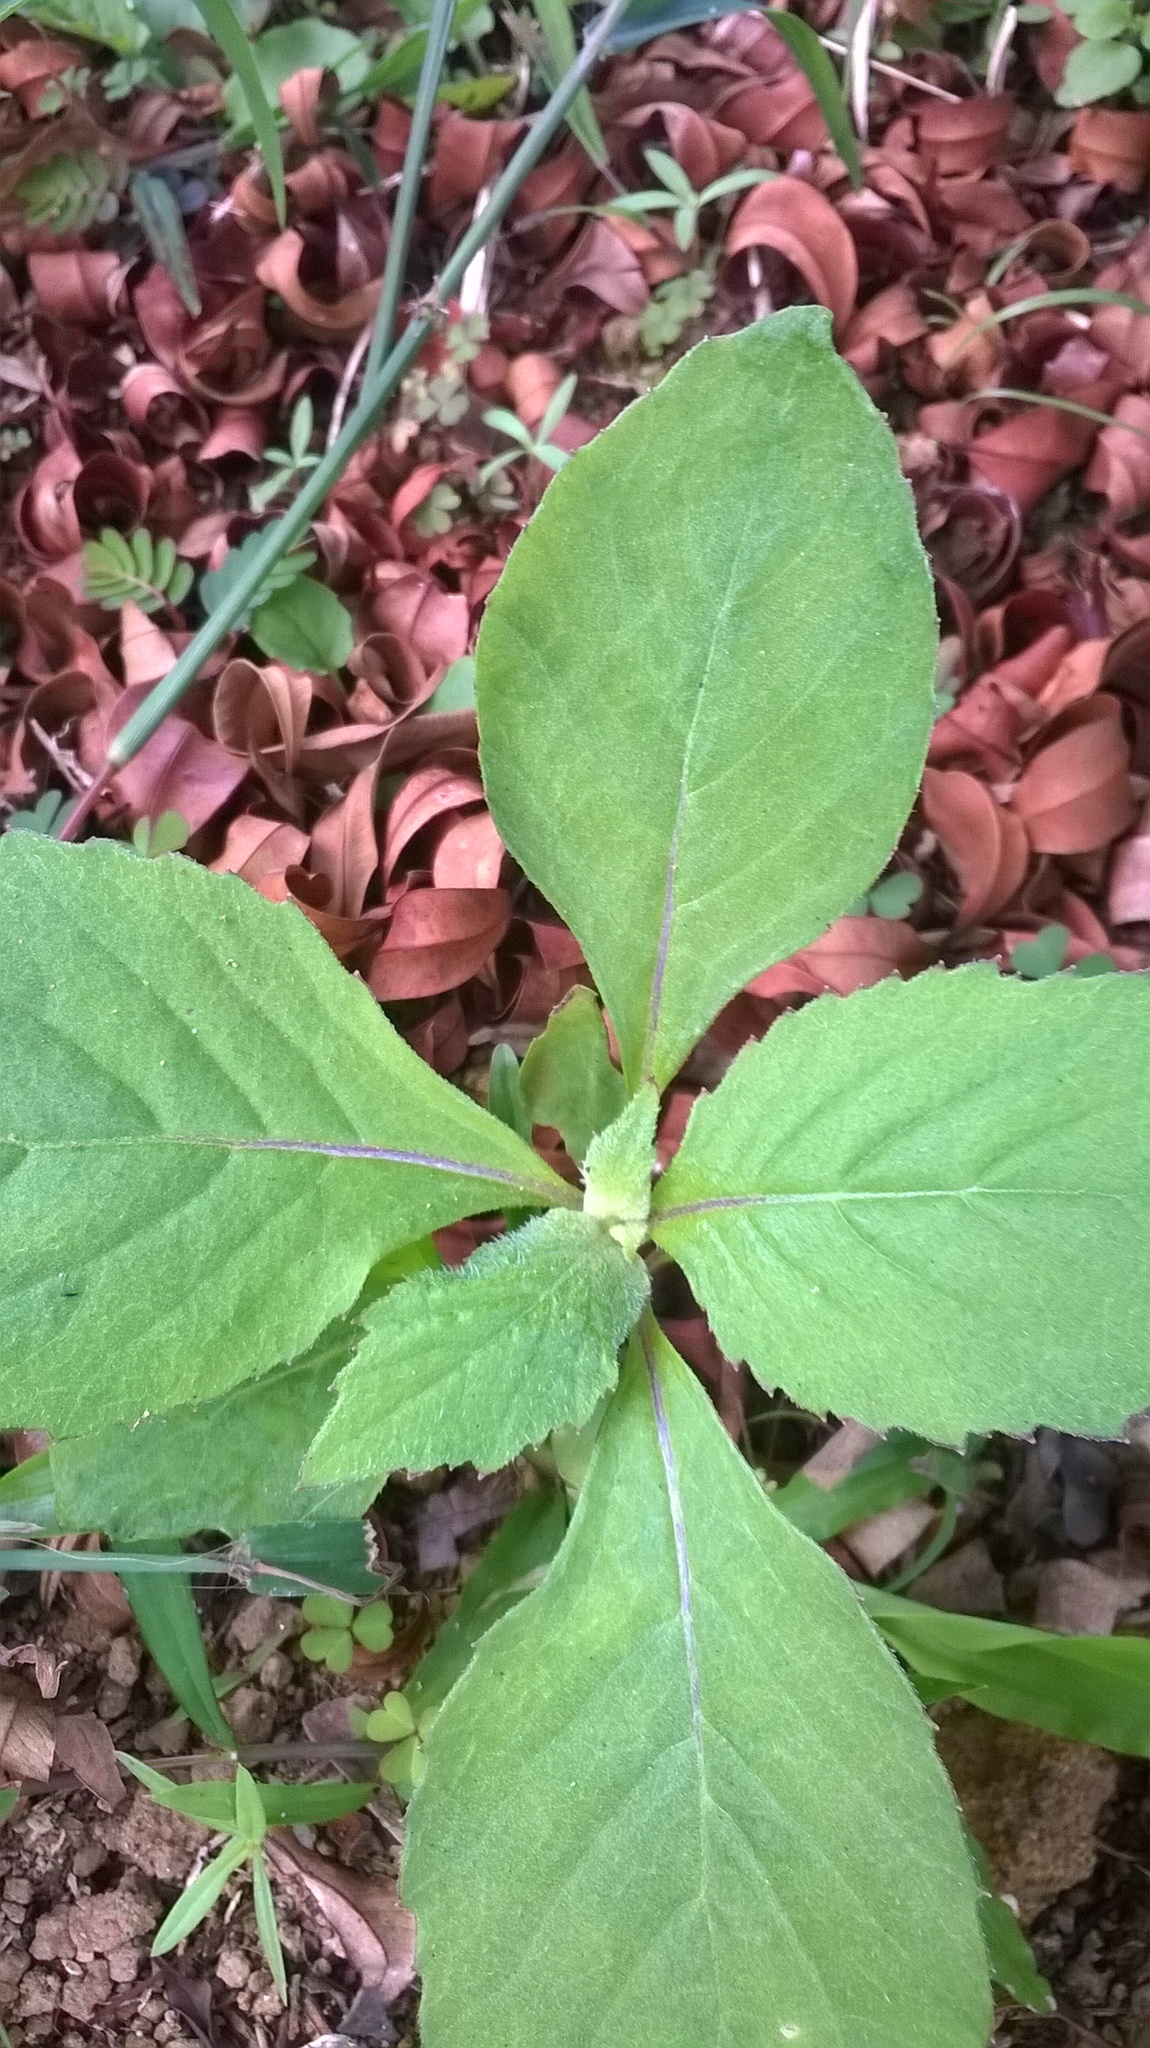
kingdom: Plantae
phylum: Tracheophyta
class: Magnoliopsida
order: Asterales
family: Asteraceae
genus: Crassocephalum
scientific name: Crassocephalum crepidioides
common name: Redflower ragleaf
